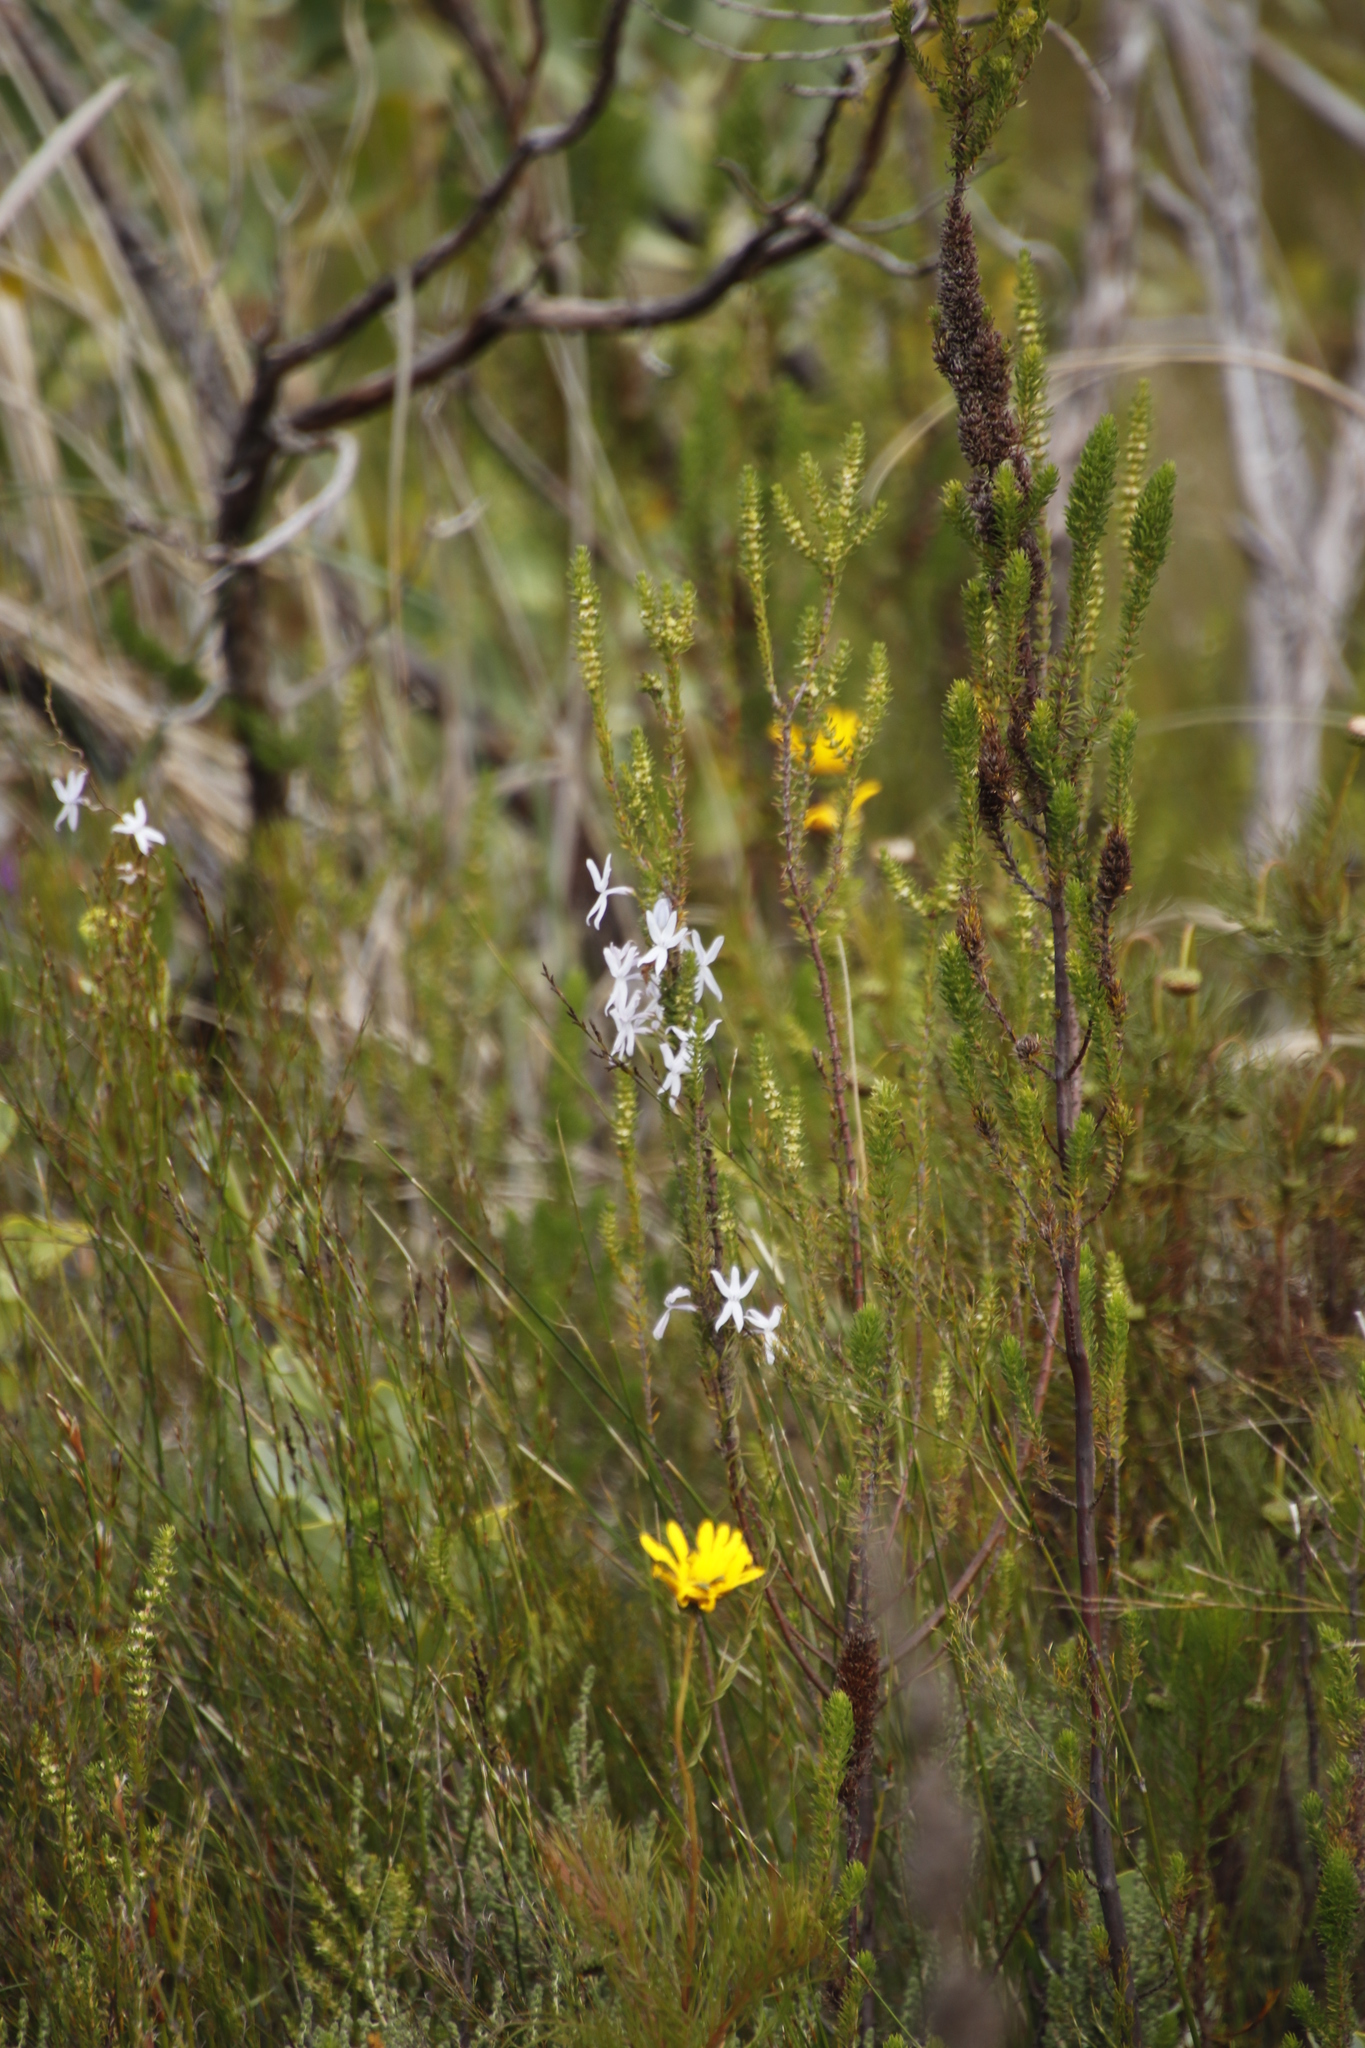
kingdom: Plantae
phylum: Tracheophyta
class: Magnoliopsida
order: Asterales
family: Campanulaceae
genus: Cyphia
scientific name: Cyphia volubilis
